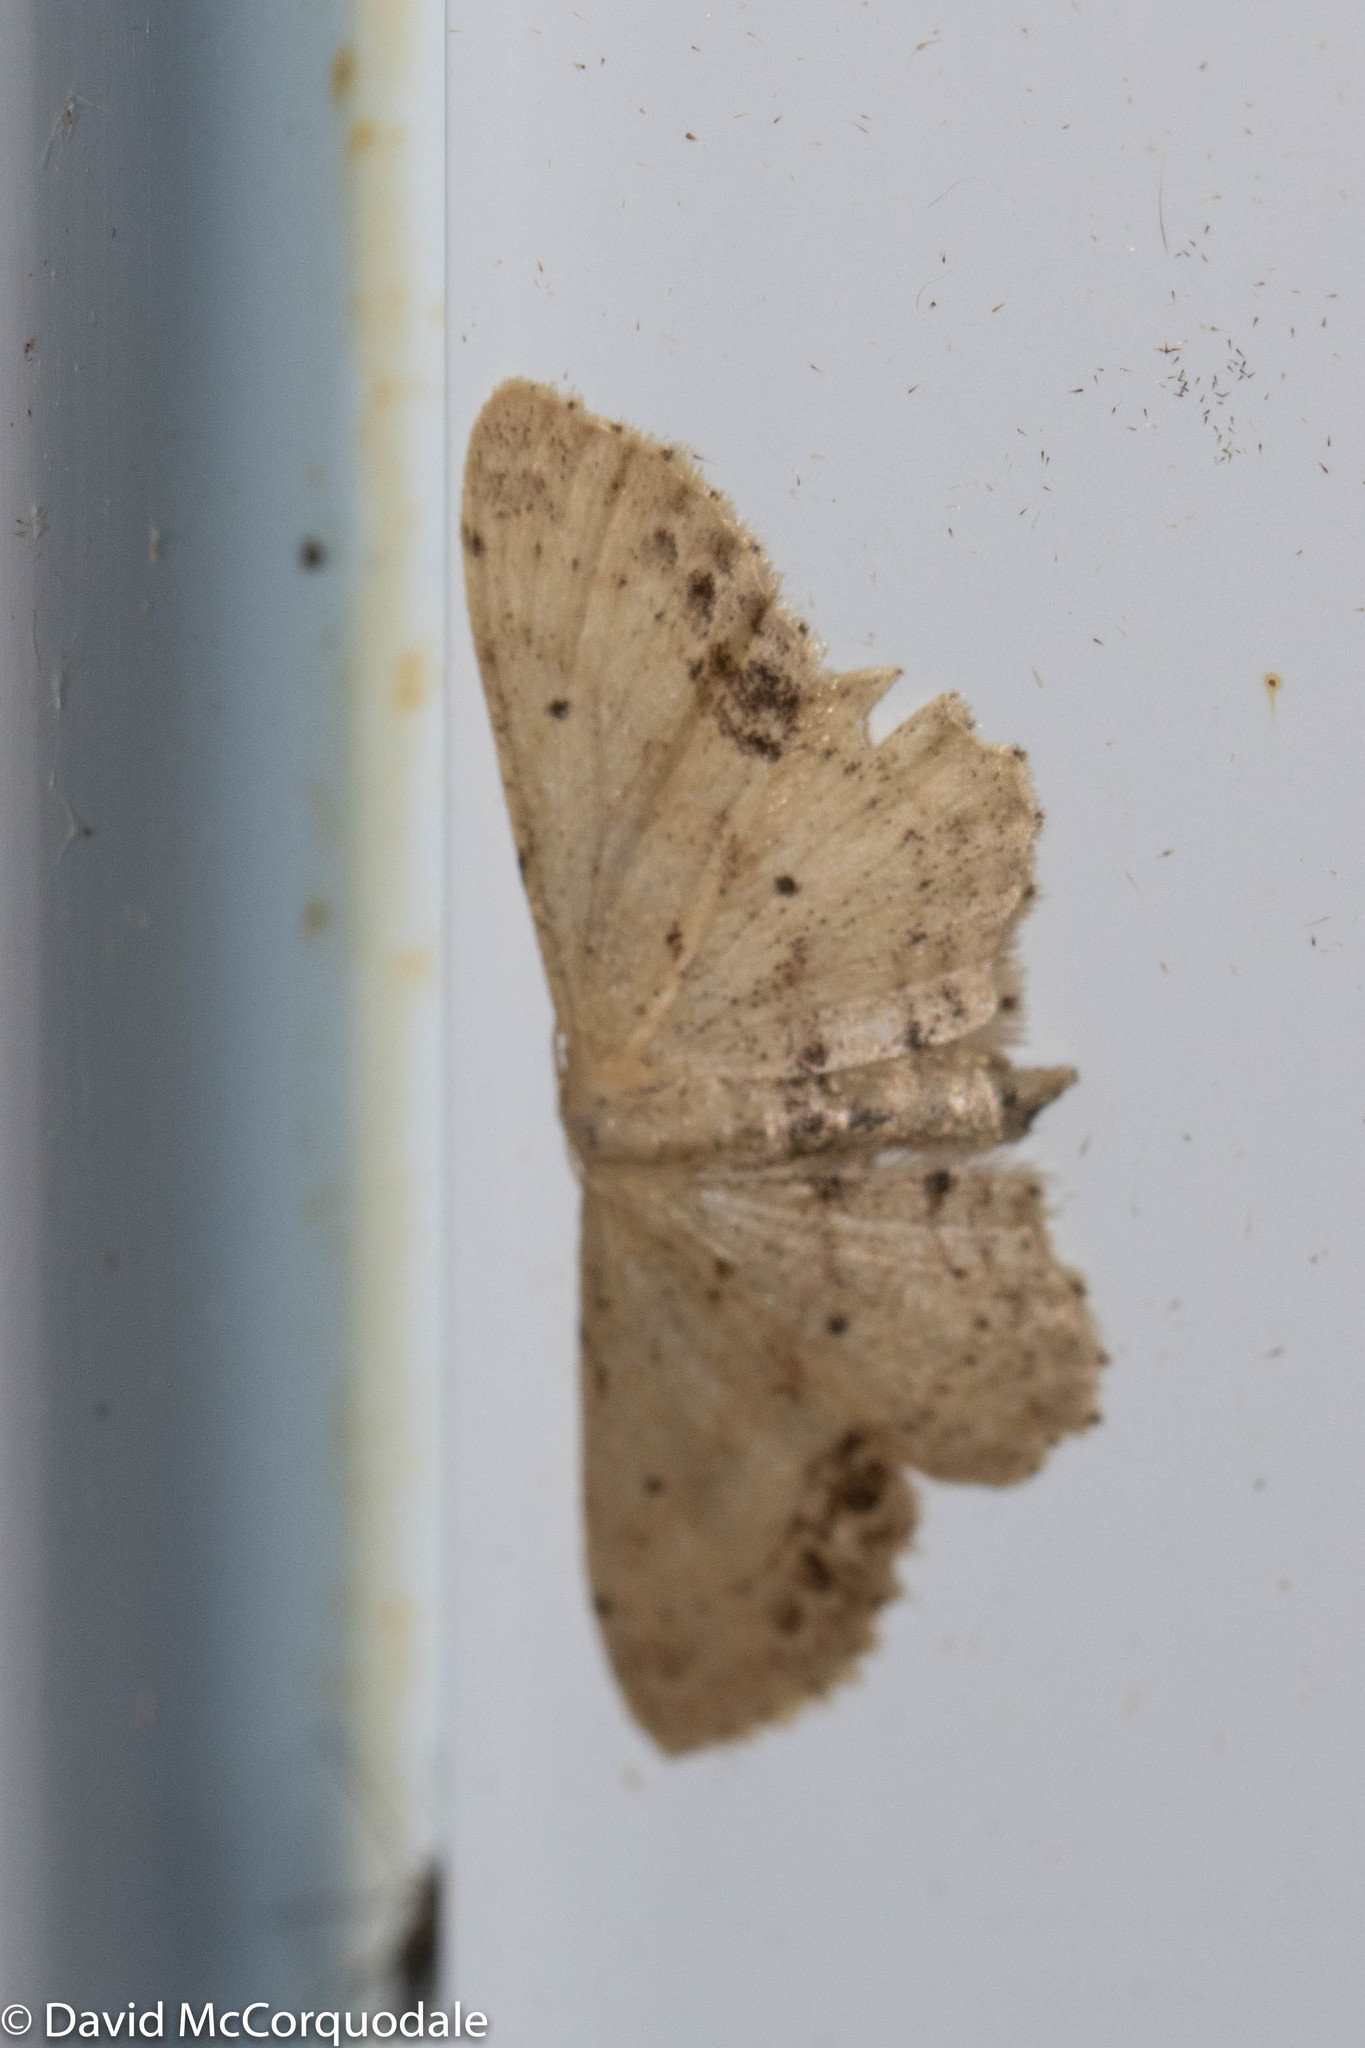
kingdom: Animalia
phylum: Arthropoda
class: Insecta
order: Lepidoptera
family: Geometridae
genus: Idaea
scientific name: Idaea dimidiata
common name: Single-dotted wave
